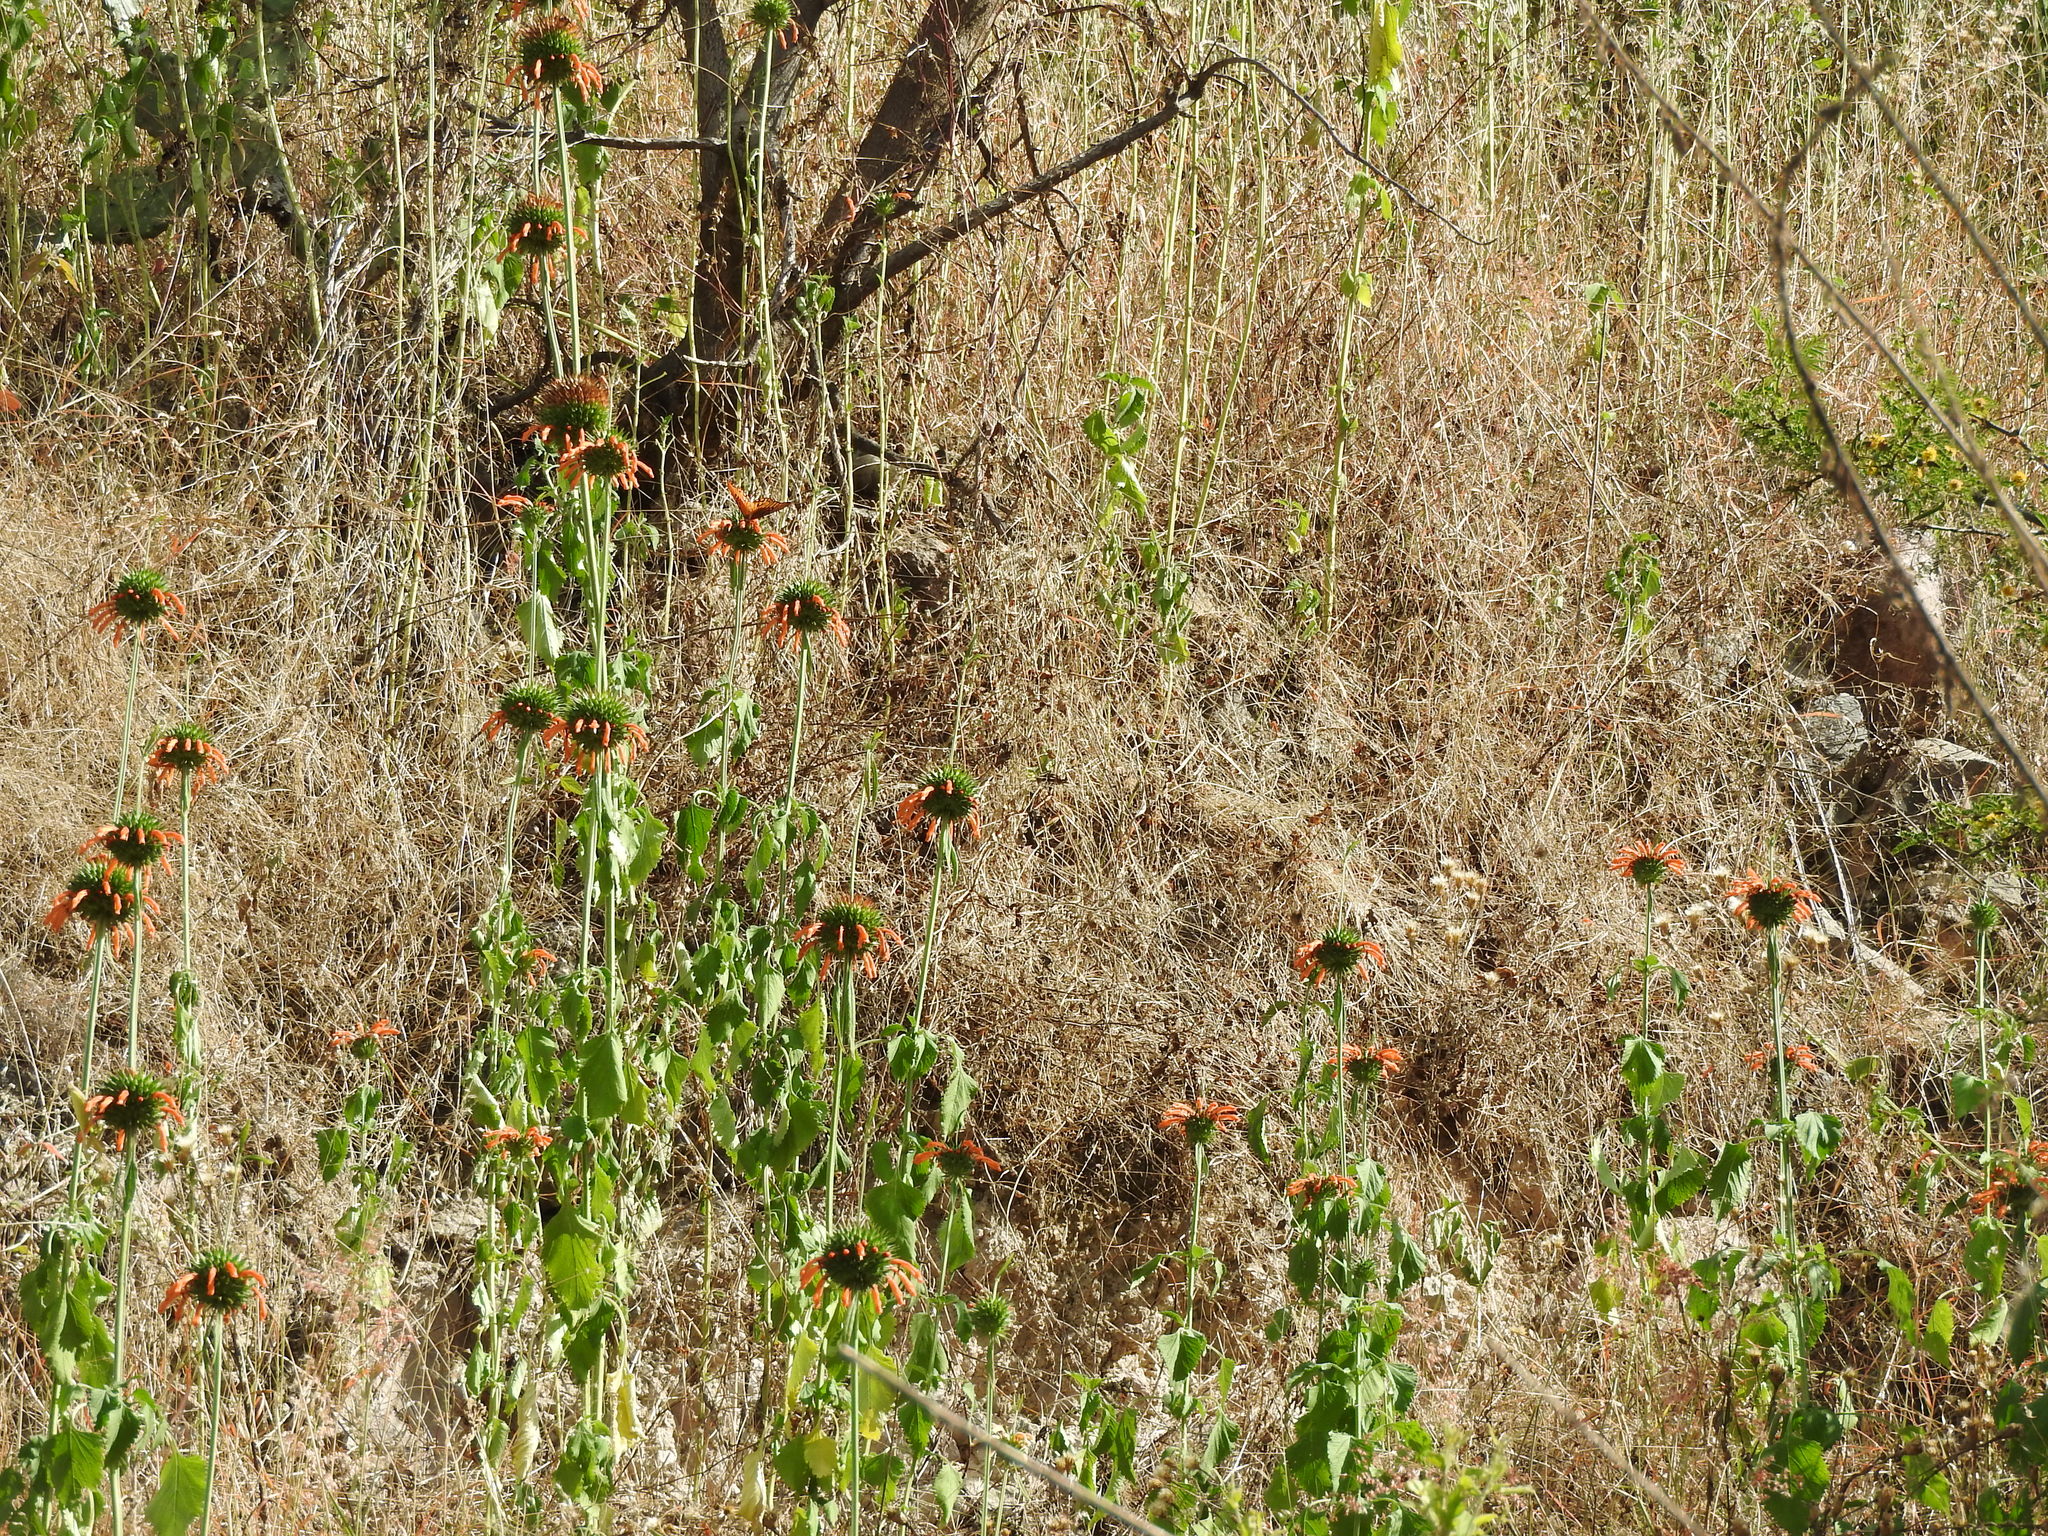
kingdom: Plantae
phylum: Tracheophyta
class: Magnoliopsida
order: Lamiales
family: Lamiaceae
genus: Leonotis
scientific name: Leonotis nepetifolia
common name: Christmas candlestick
